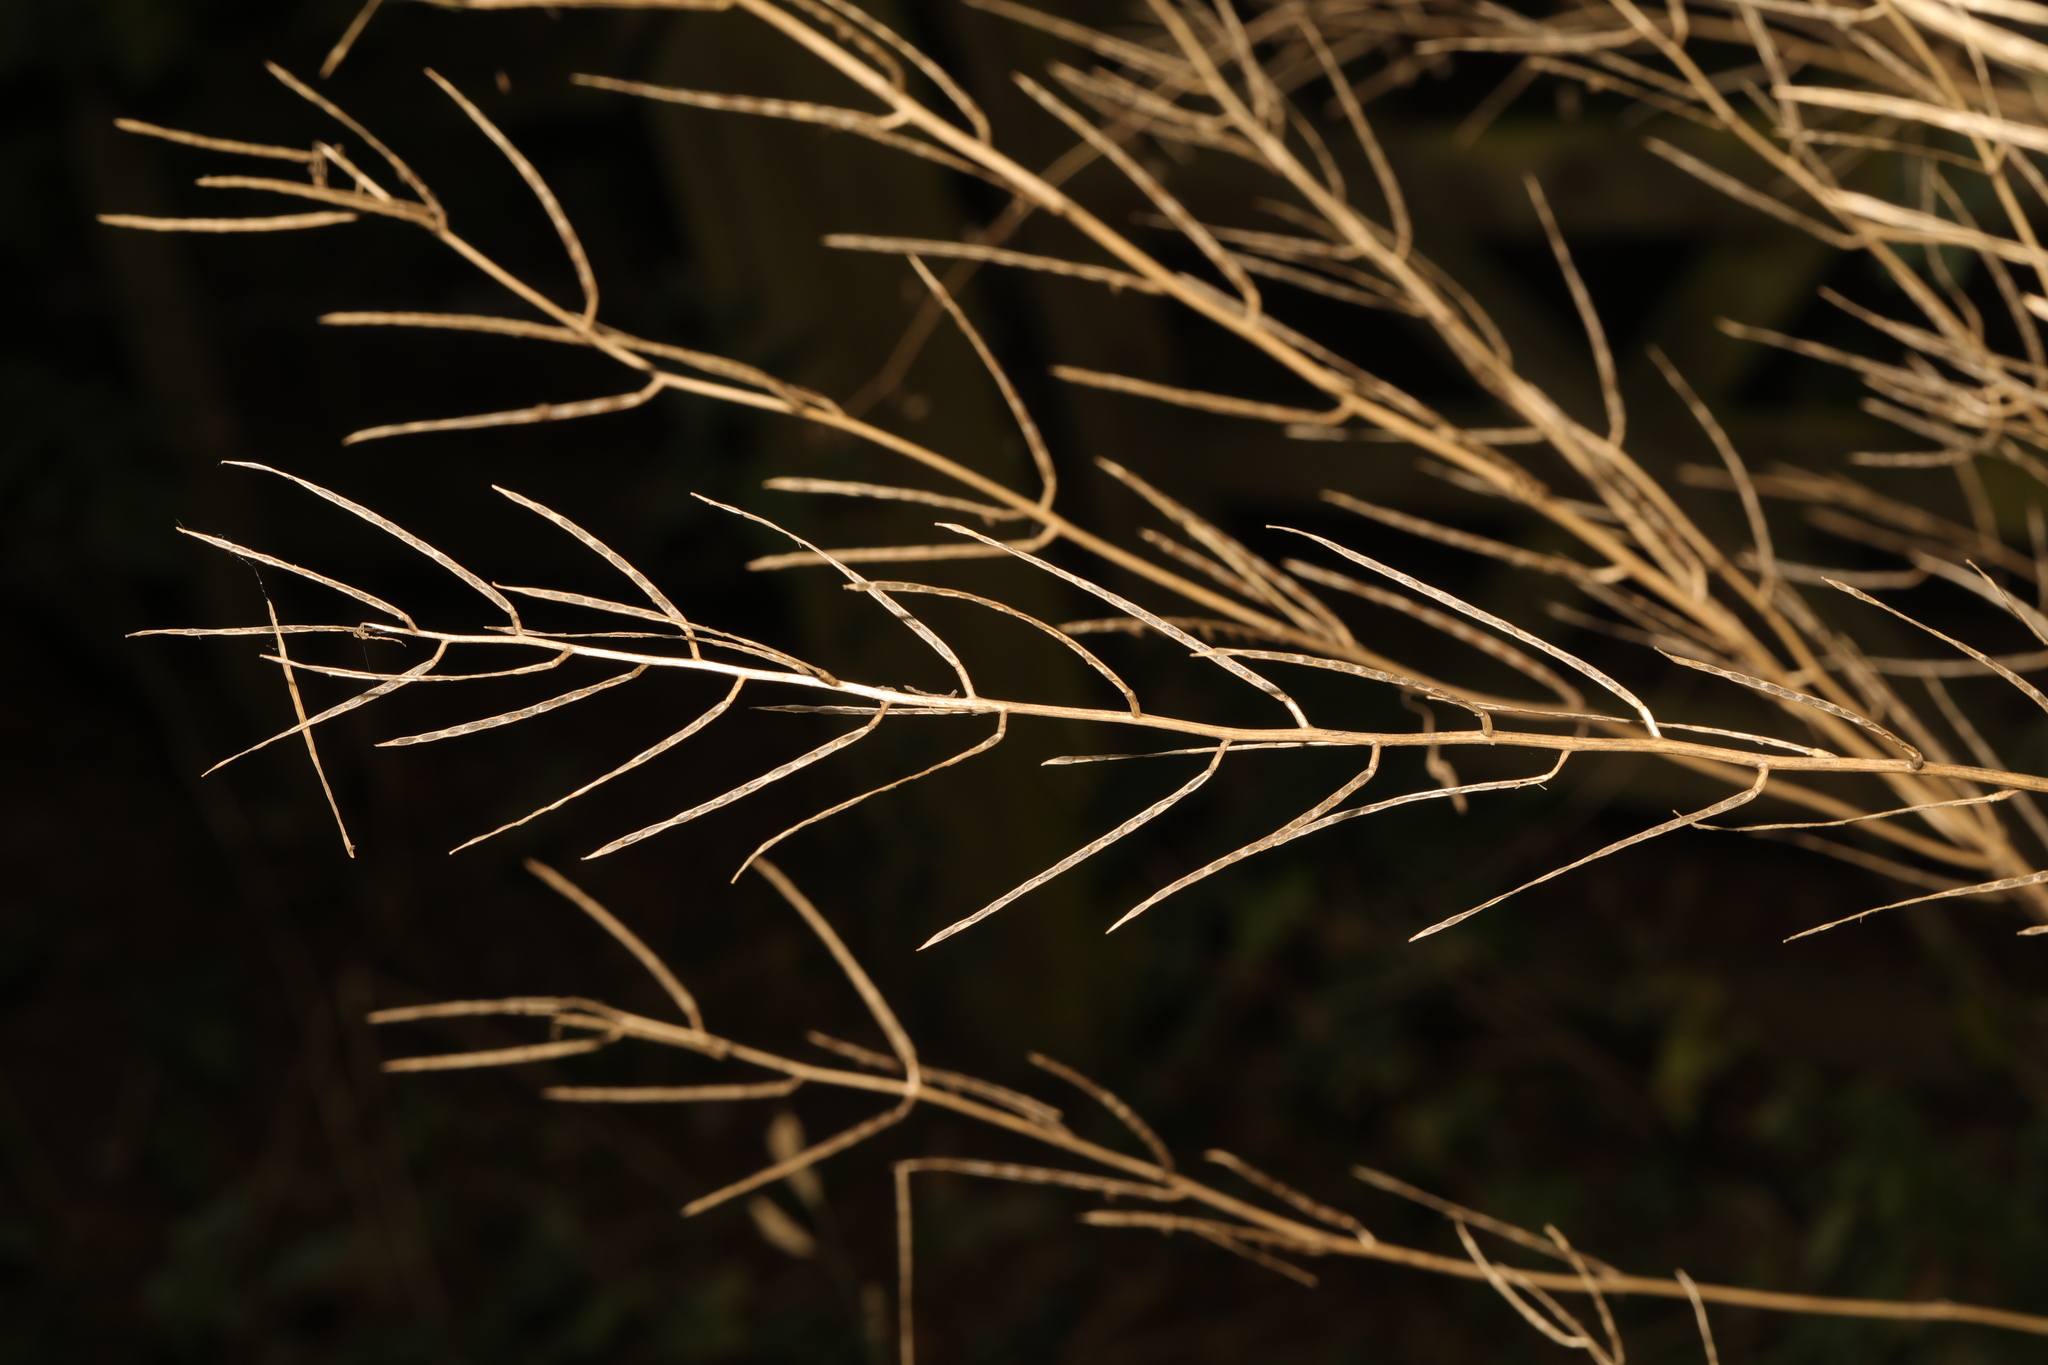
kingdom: Plantae
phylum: Tracheophyta
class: Magnoliopsida
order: Brassicales
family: Brassicaceae
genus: Alliaria
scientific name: Alliaria petiolata
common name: Garlic mustard
